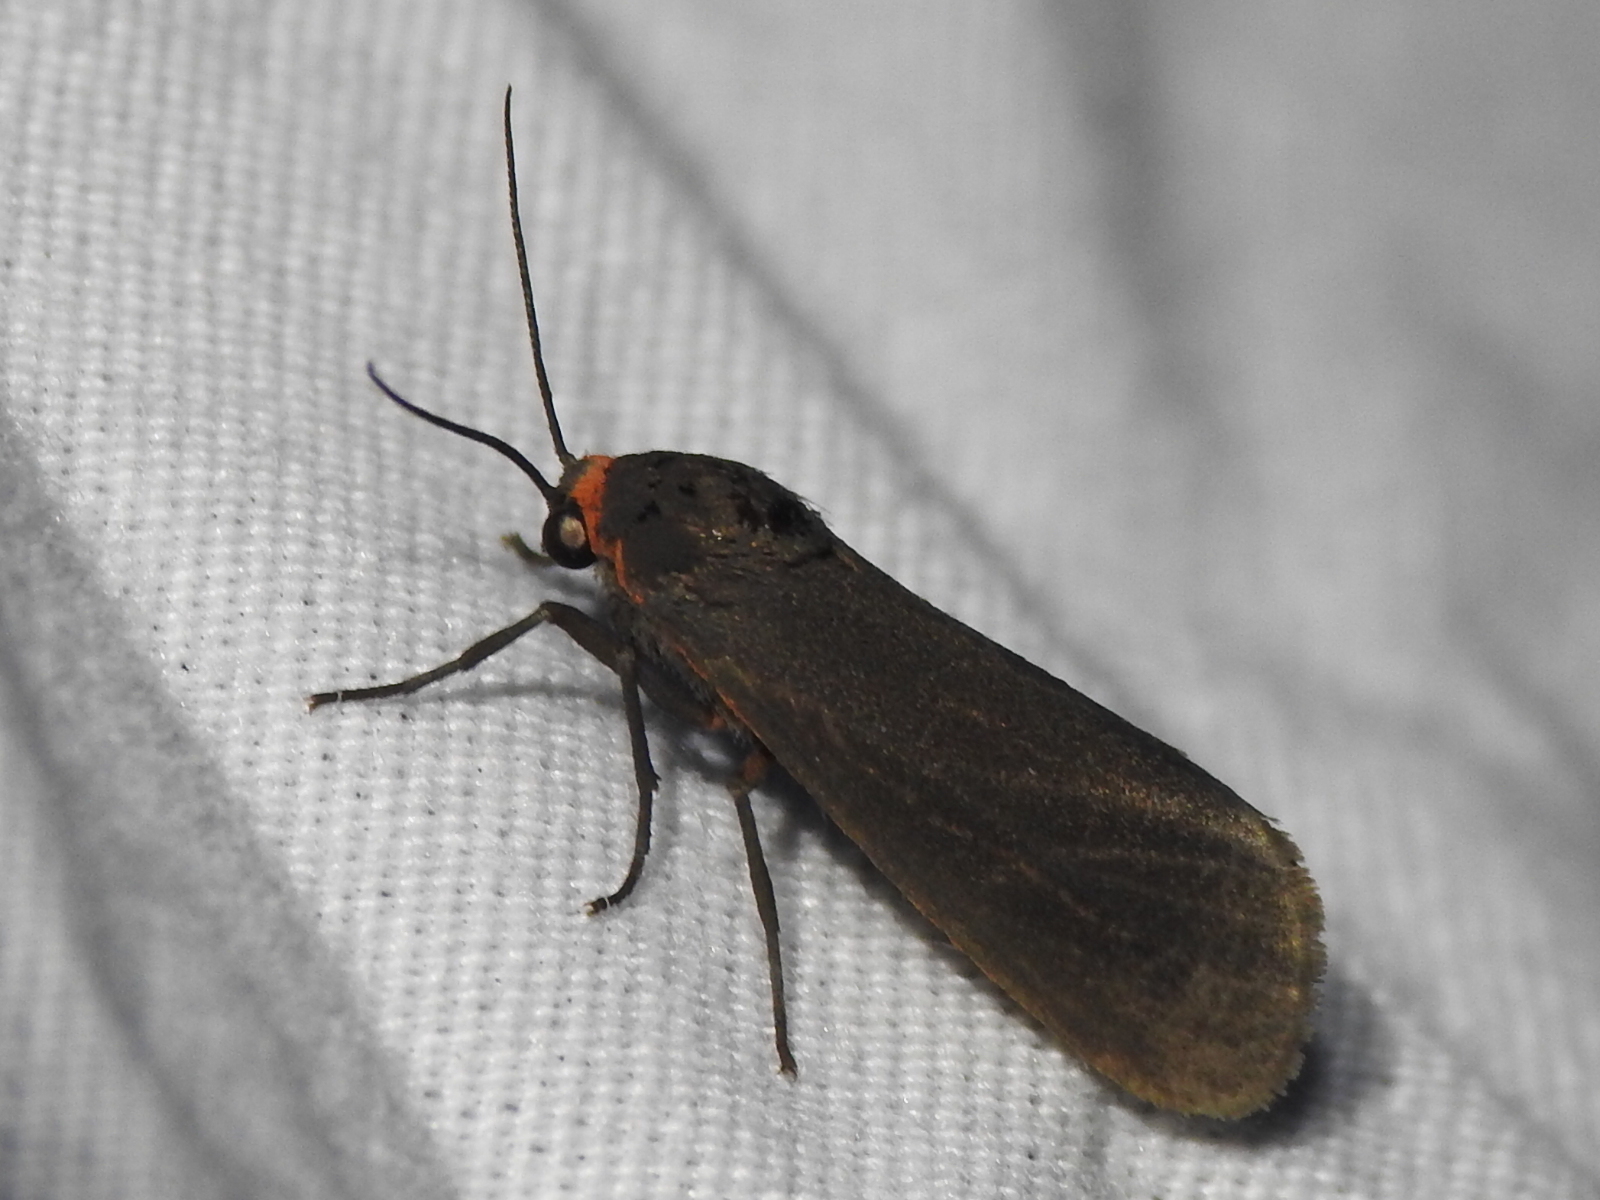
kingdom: Animalia
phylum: Arthropoda
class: Insecta
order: Lepidoptera
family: Erebidae
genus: Virbia
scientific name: Virbia laeta
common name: Joyful holomelina moth
